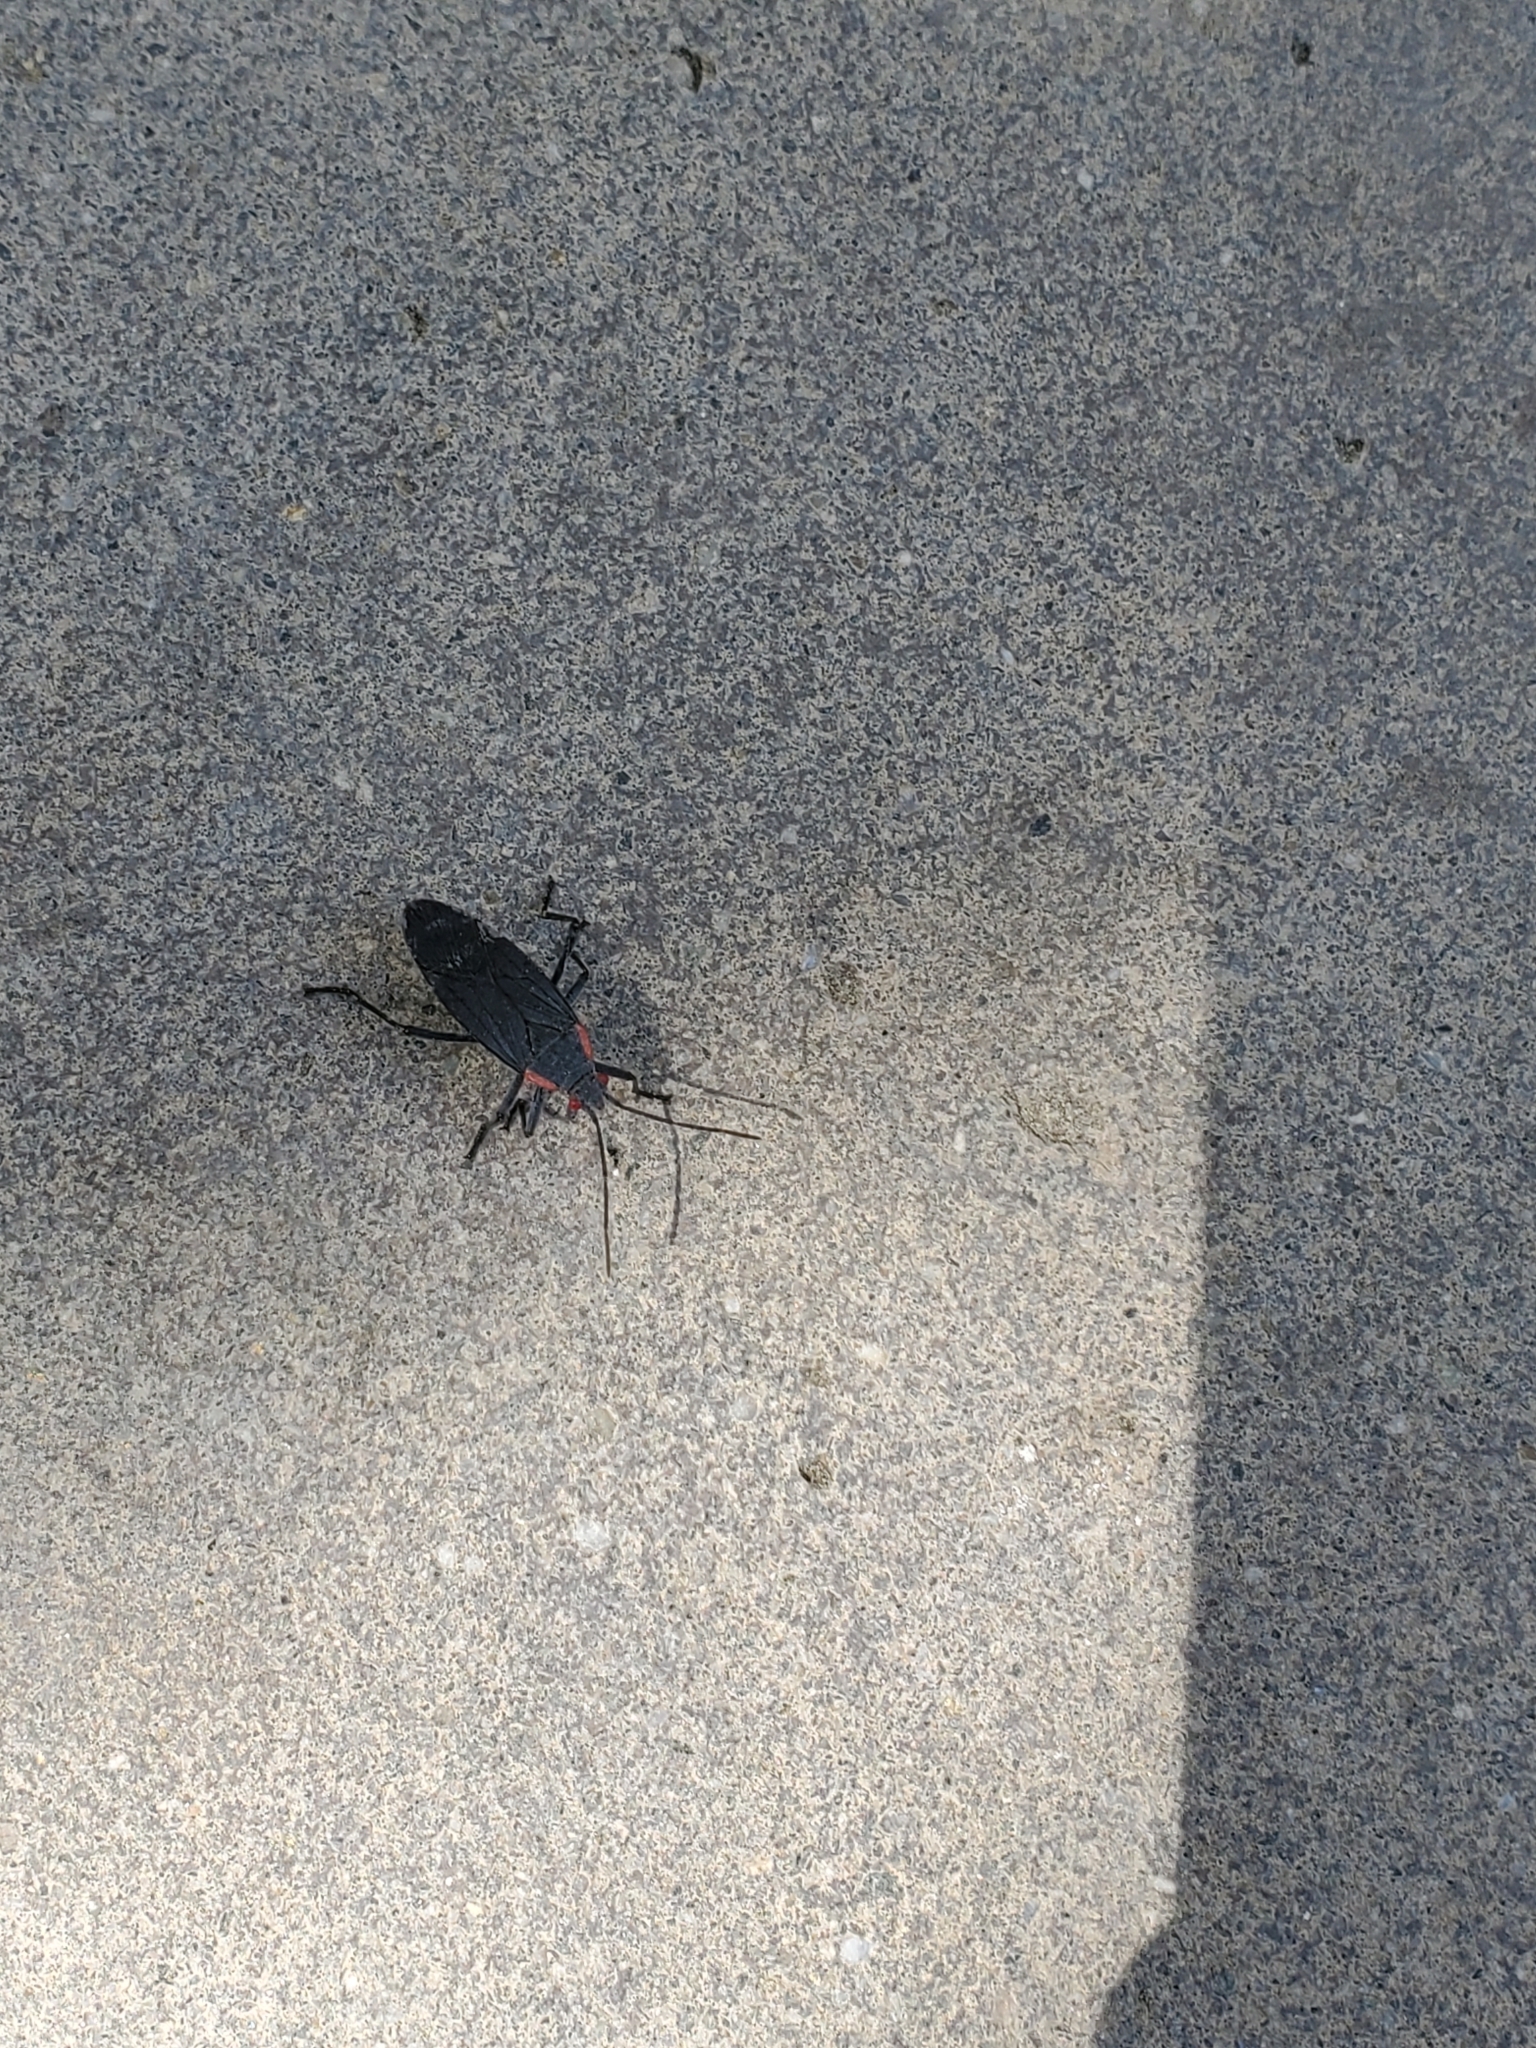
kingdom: Animalia
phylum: Arthropoda
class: Insecta
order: Hemiptera
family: Rhopalidae
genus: Jadera
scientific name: Jadera haematoloma
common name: Red-shouldered bug
